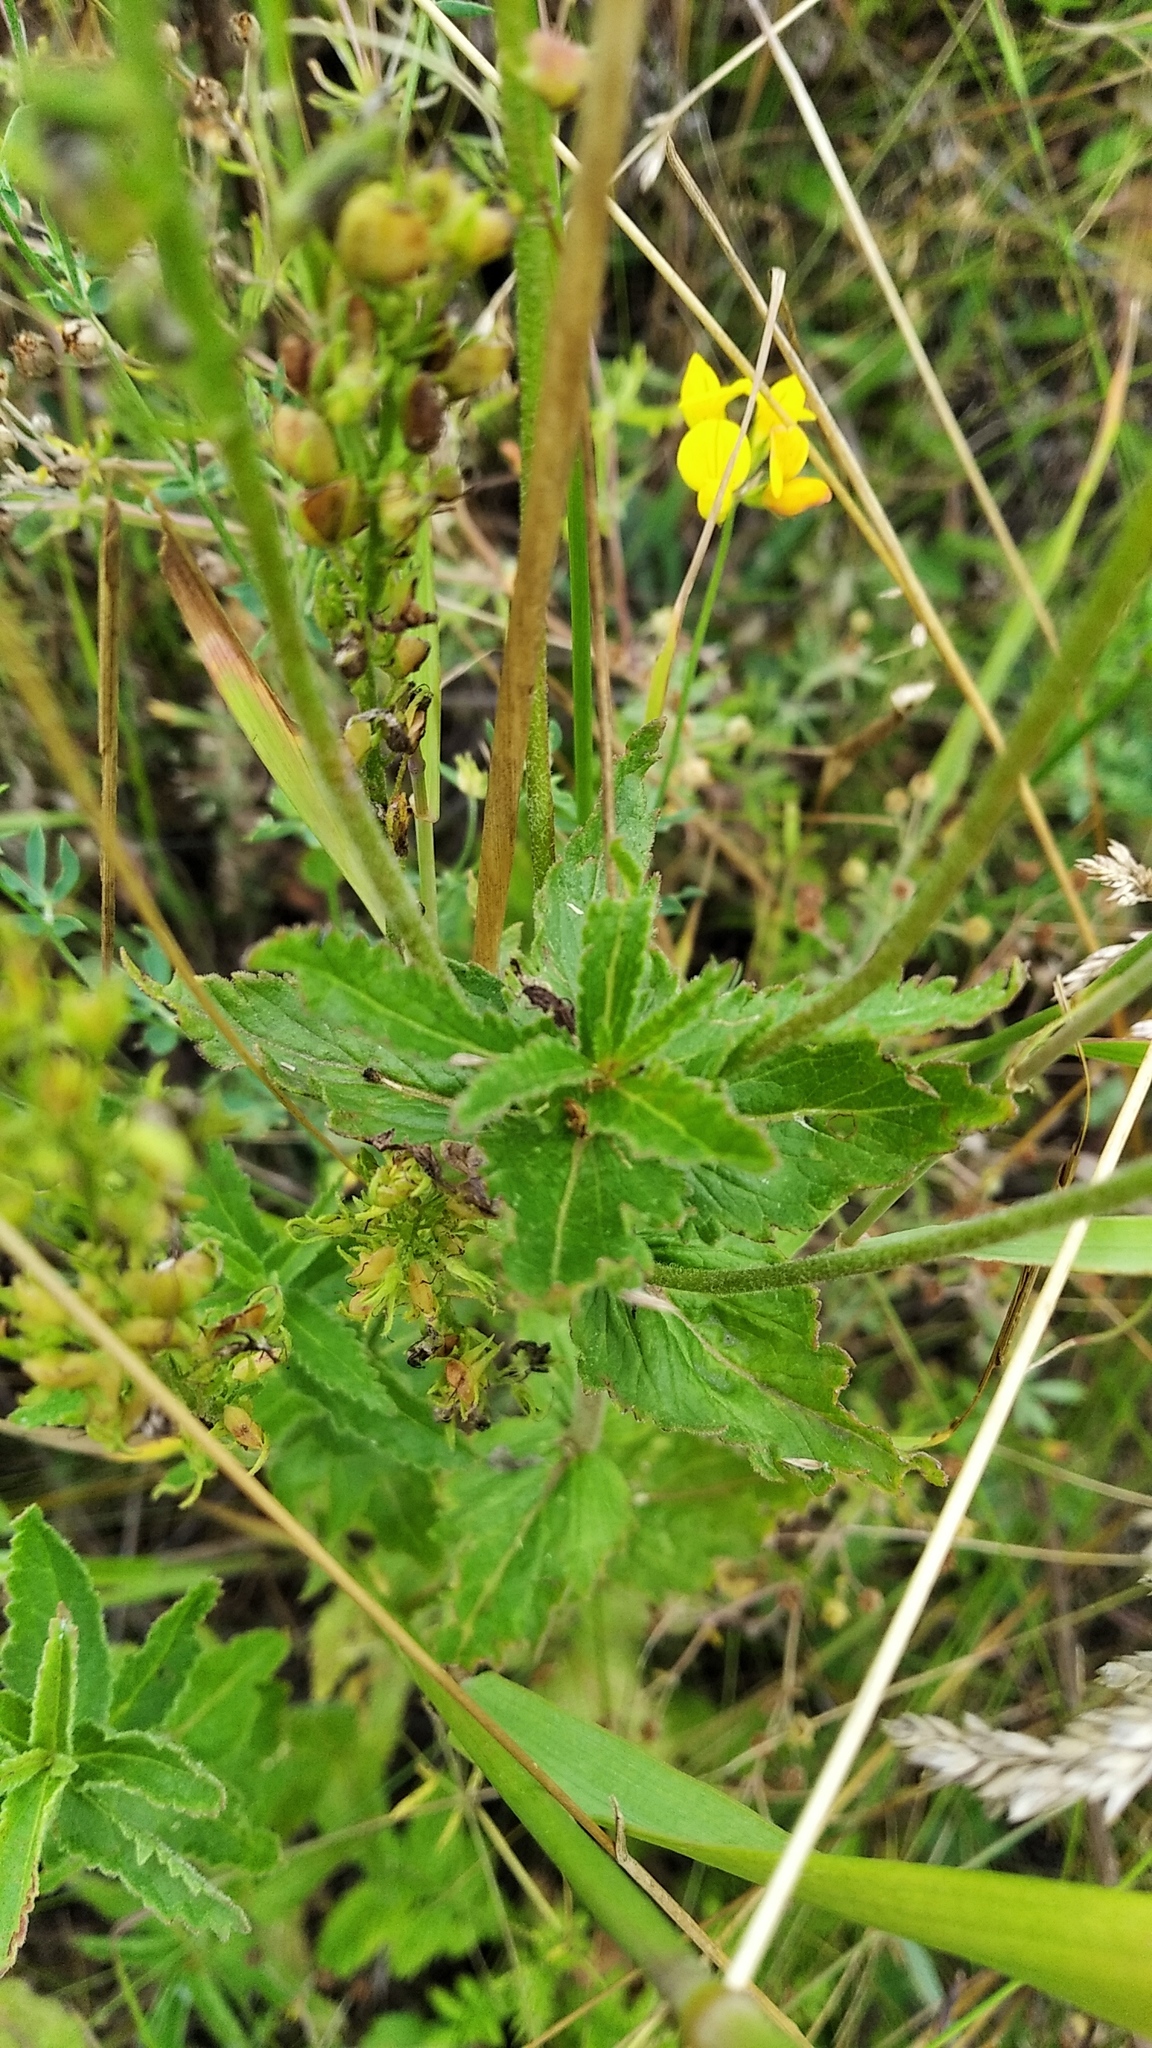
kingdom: Plantae
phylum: Tracheophyta
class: Magnoliopsida
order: Lamiales
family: Plantaginaceae
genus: Veronica
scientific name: Veronica teucrium
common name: Large speedwell
